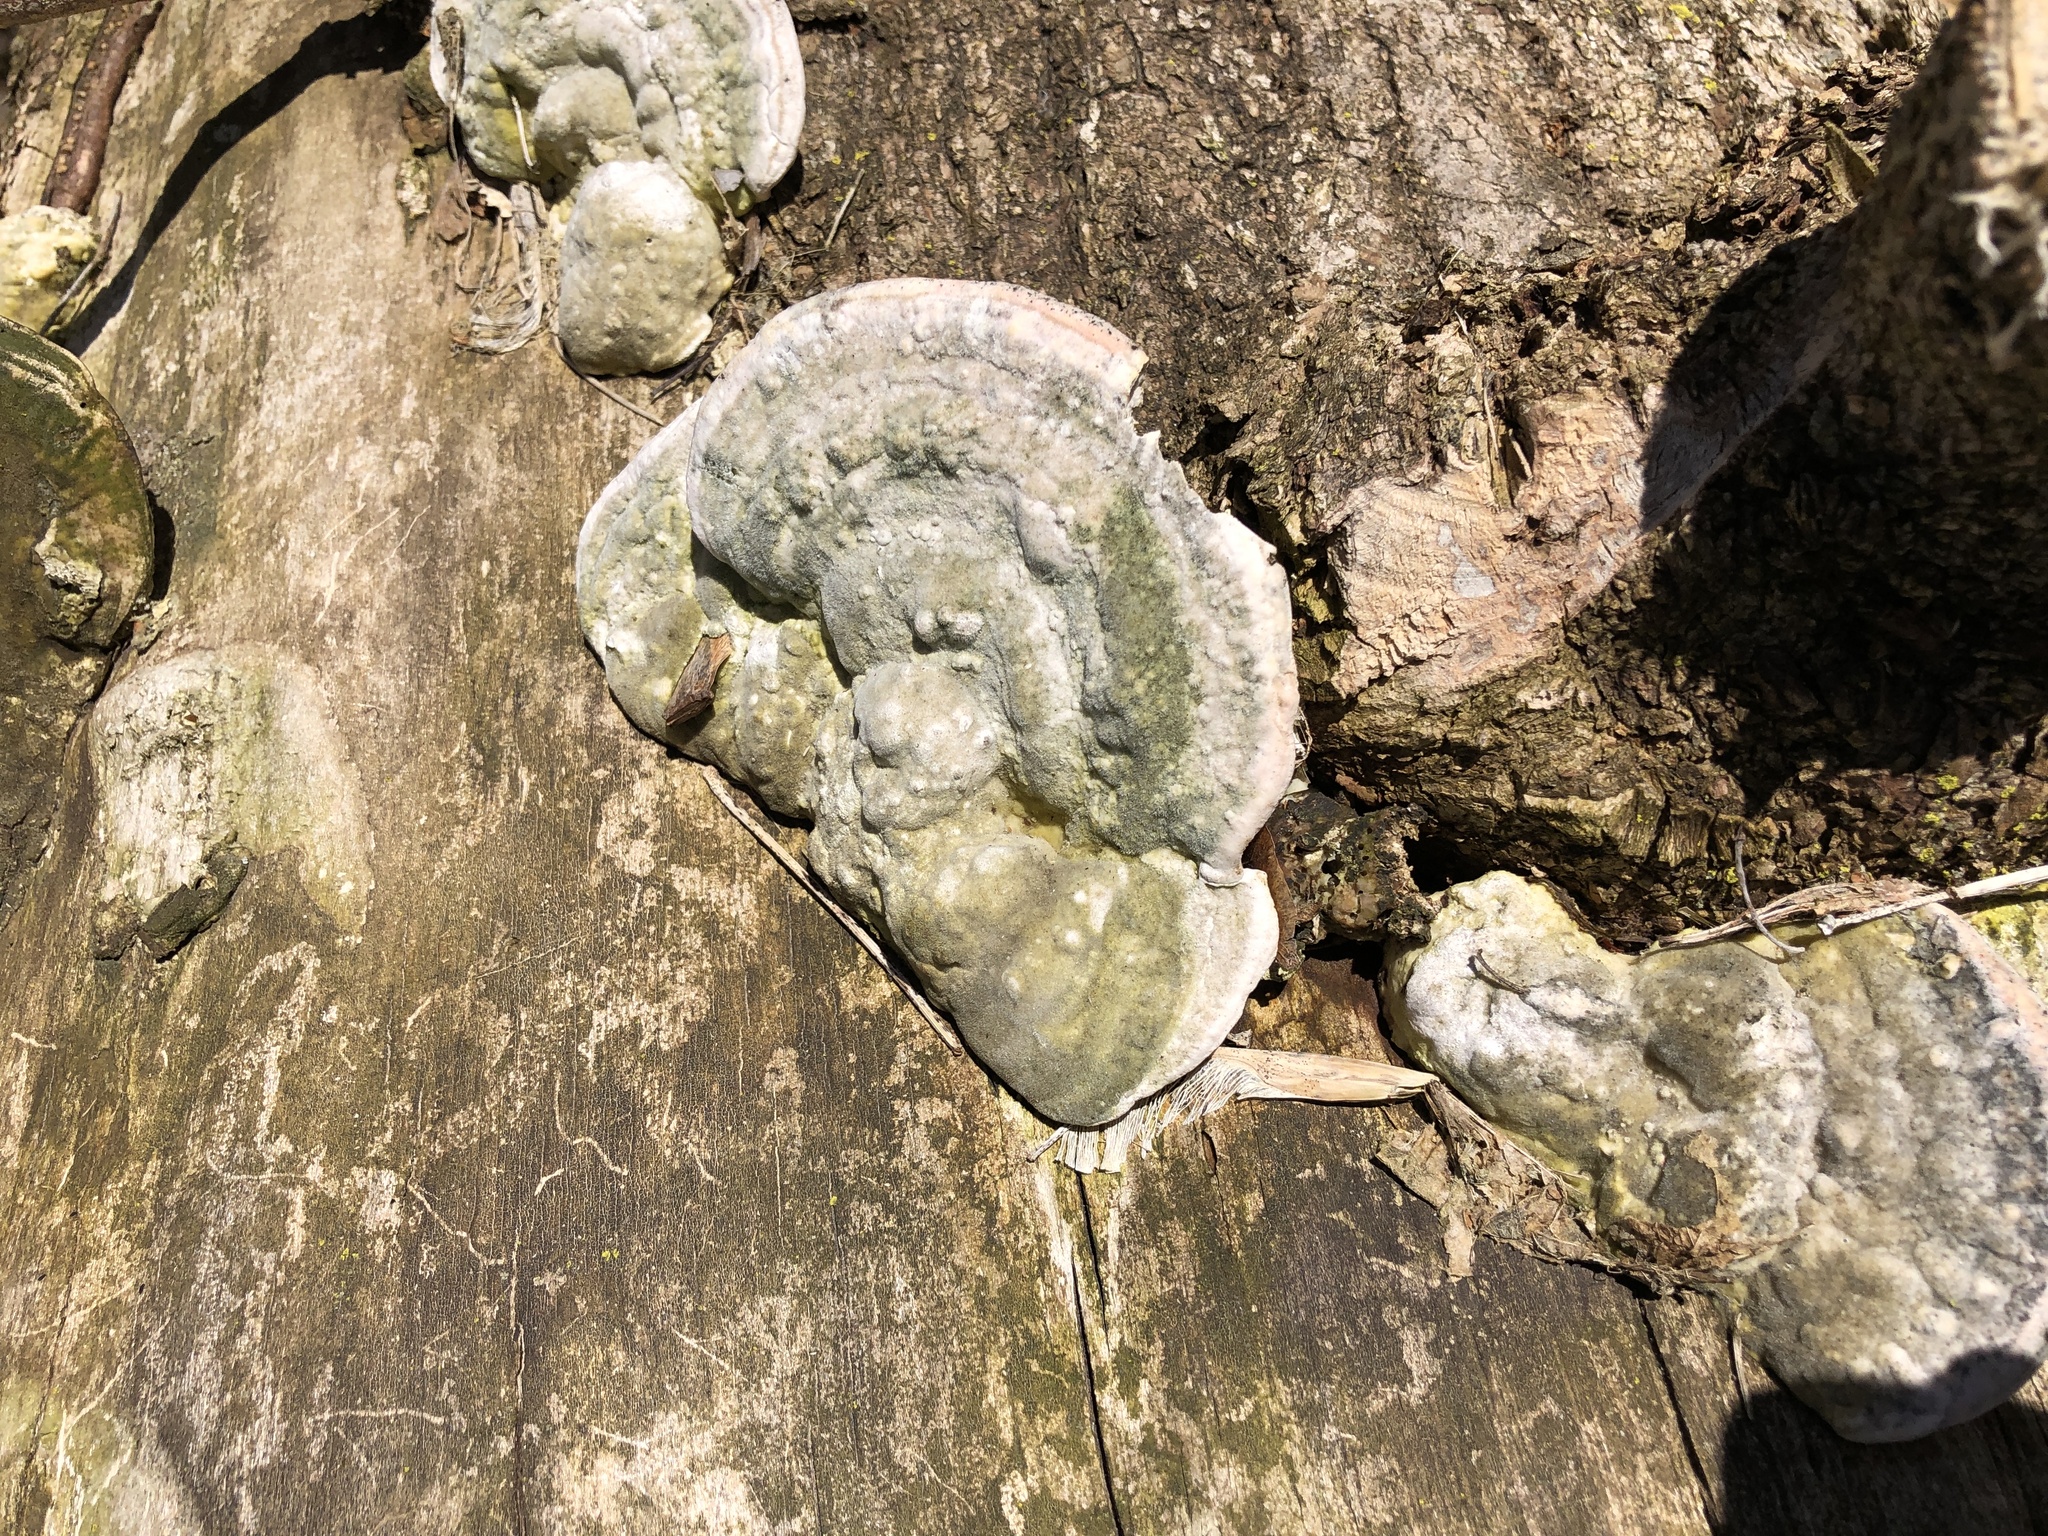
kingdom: Fungi
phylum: Basidiomycota
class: Agaricomycetes
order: Polyporales
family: Polyporaceae
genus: Trametes
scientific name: Trametes gibbosa
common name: Lumpy bracket
